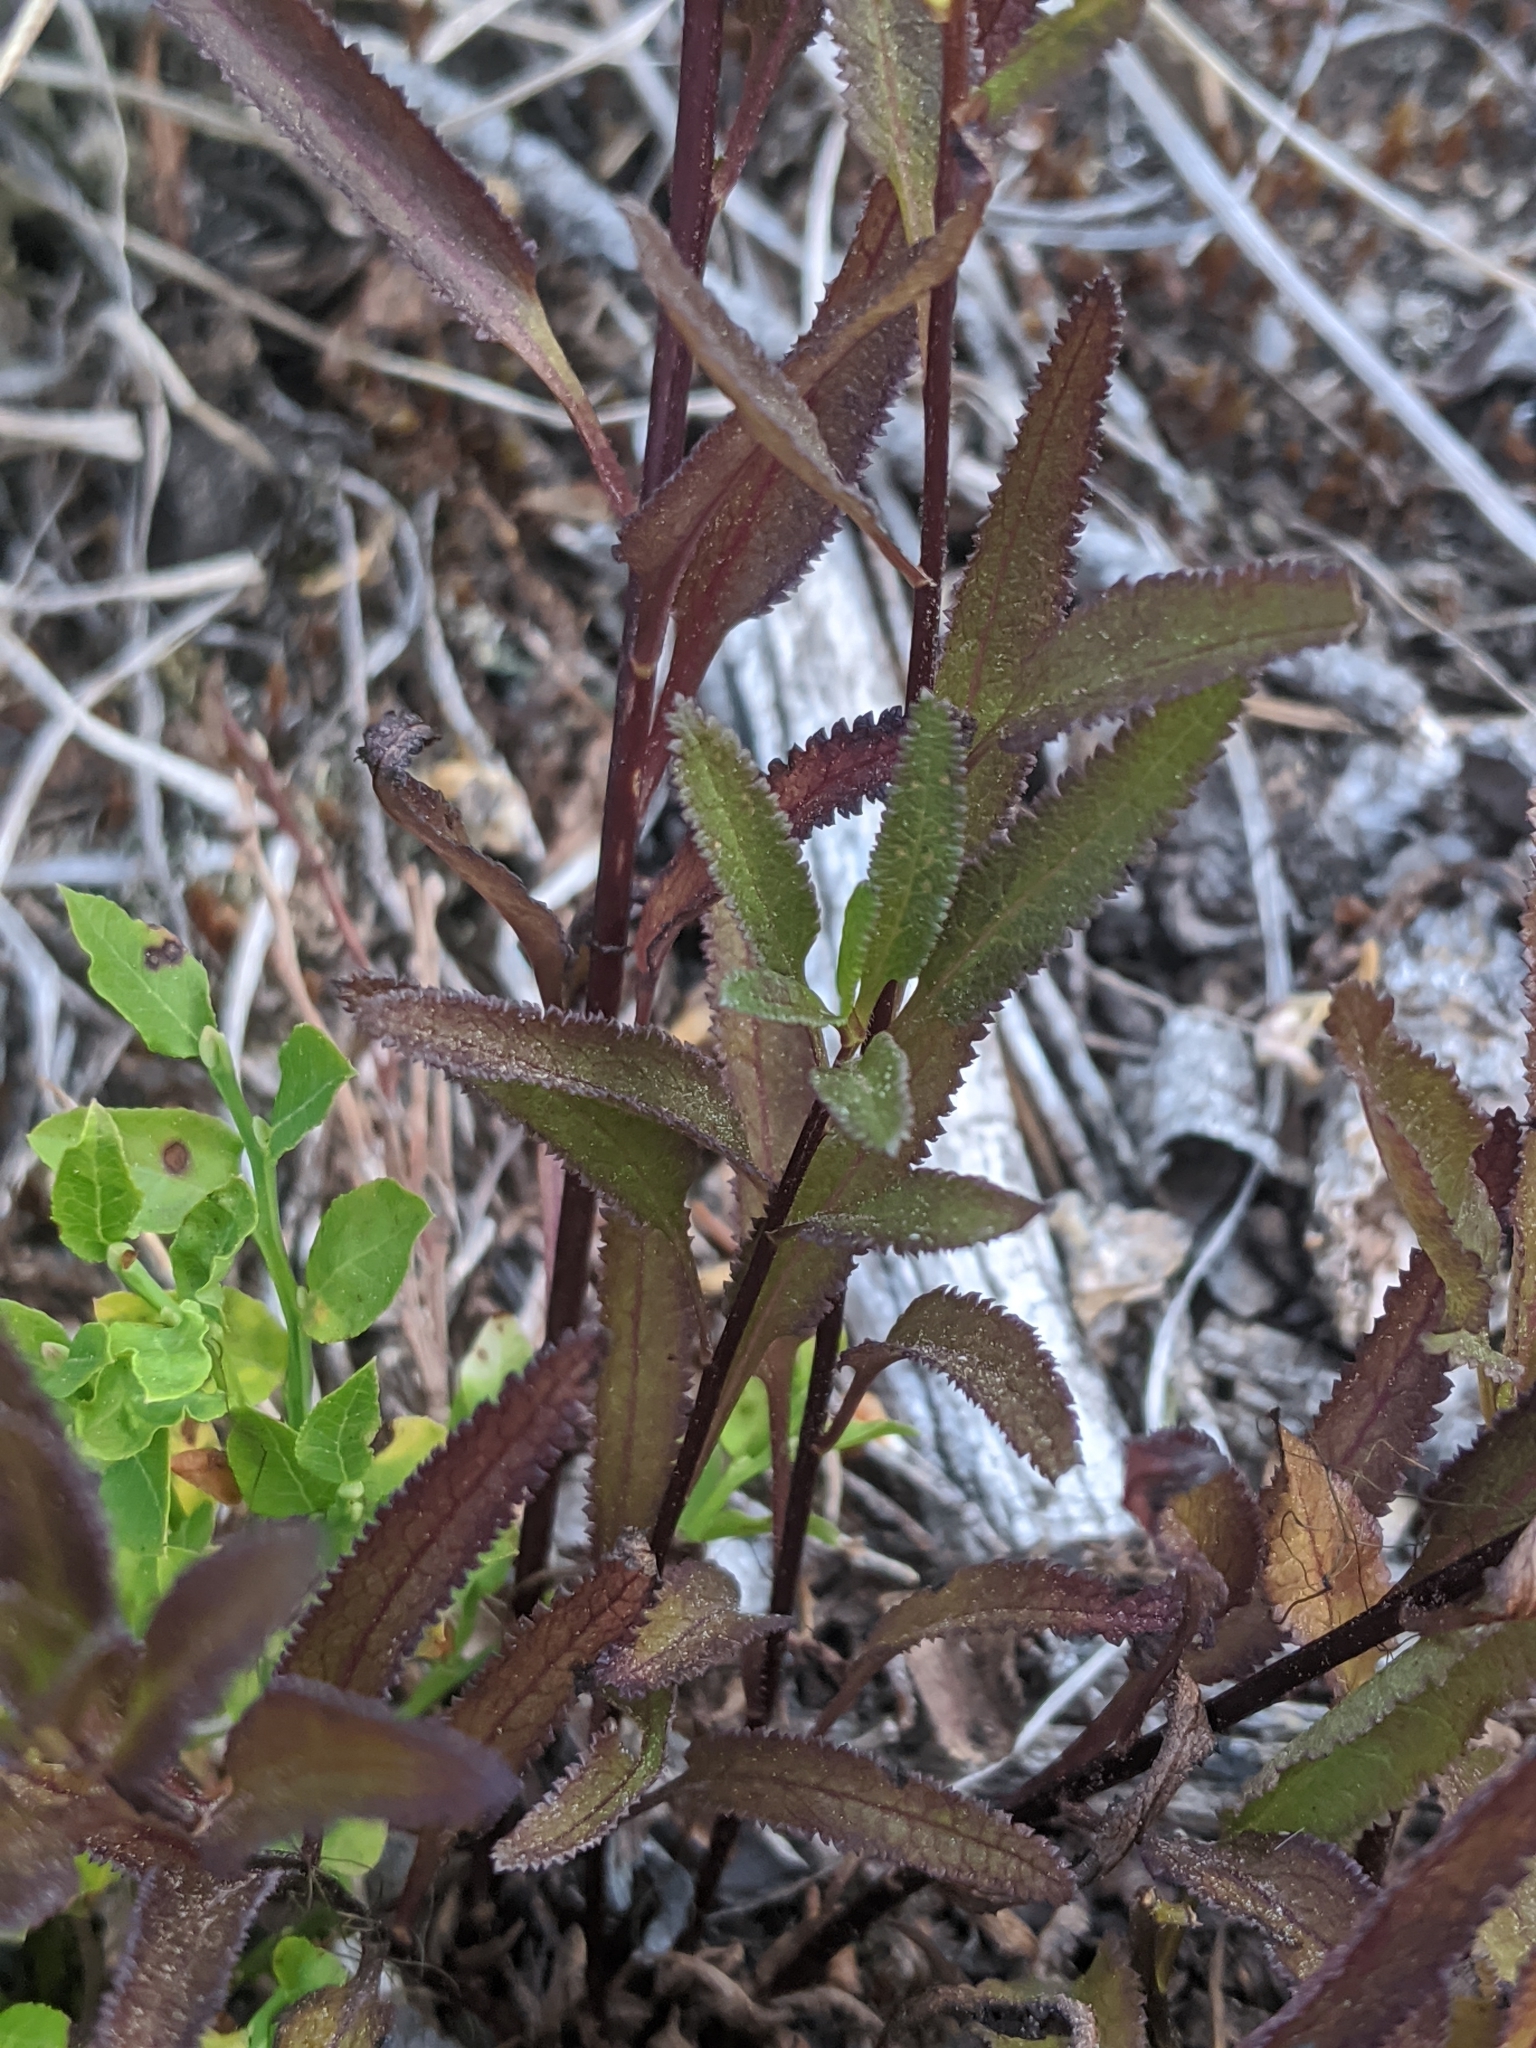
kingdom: Plantae
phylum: Tracheophyta
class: Magnoliopsida
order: Lamiales
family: Orobanchaceae
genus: Pedicularis
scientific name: Pedicularis racemosa
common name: Leafy lousewort
